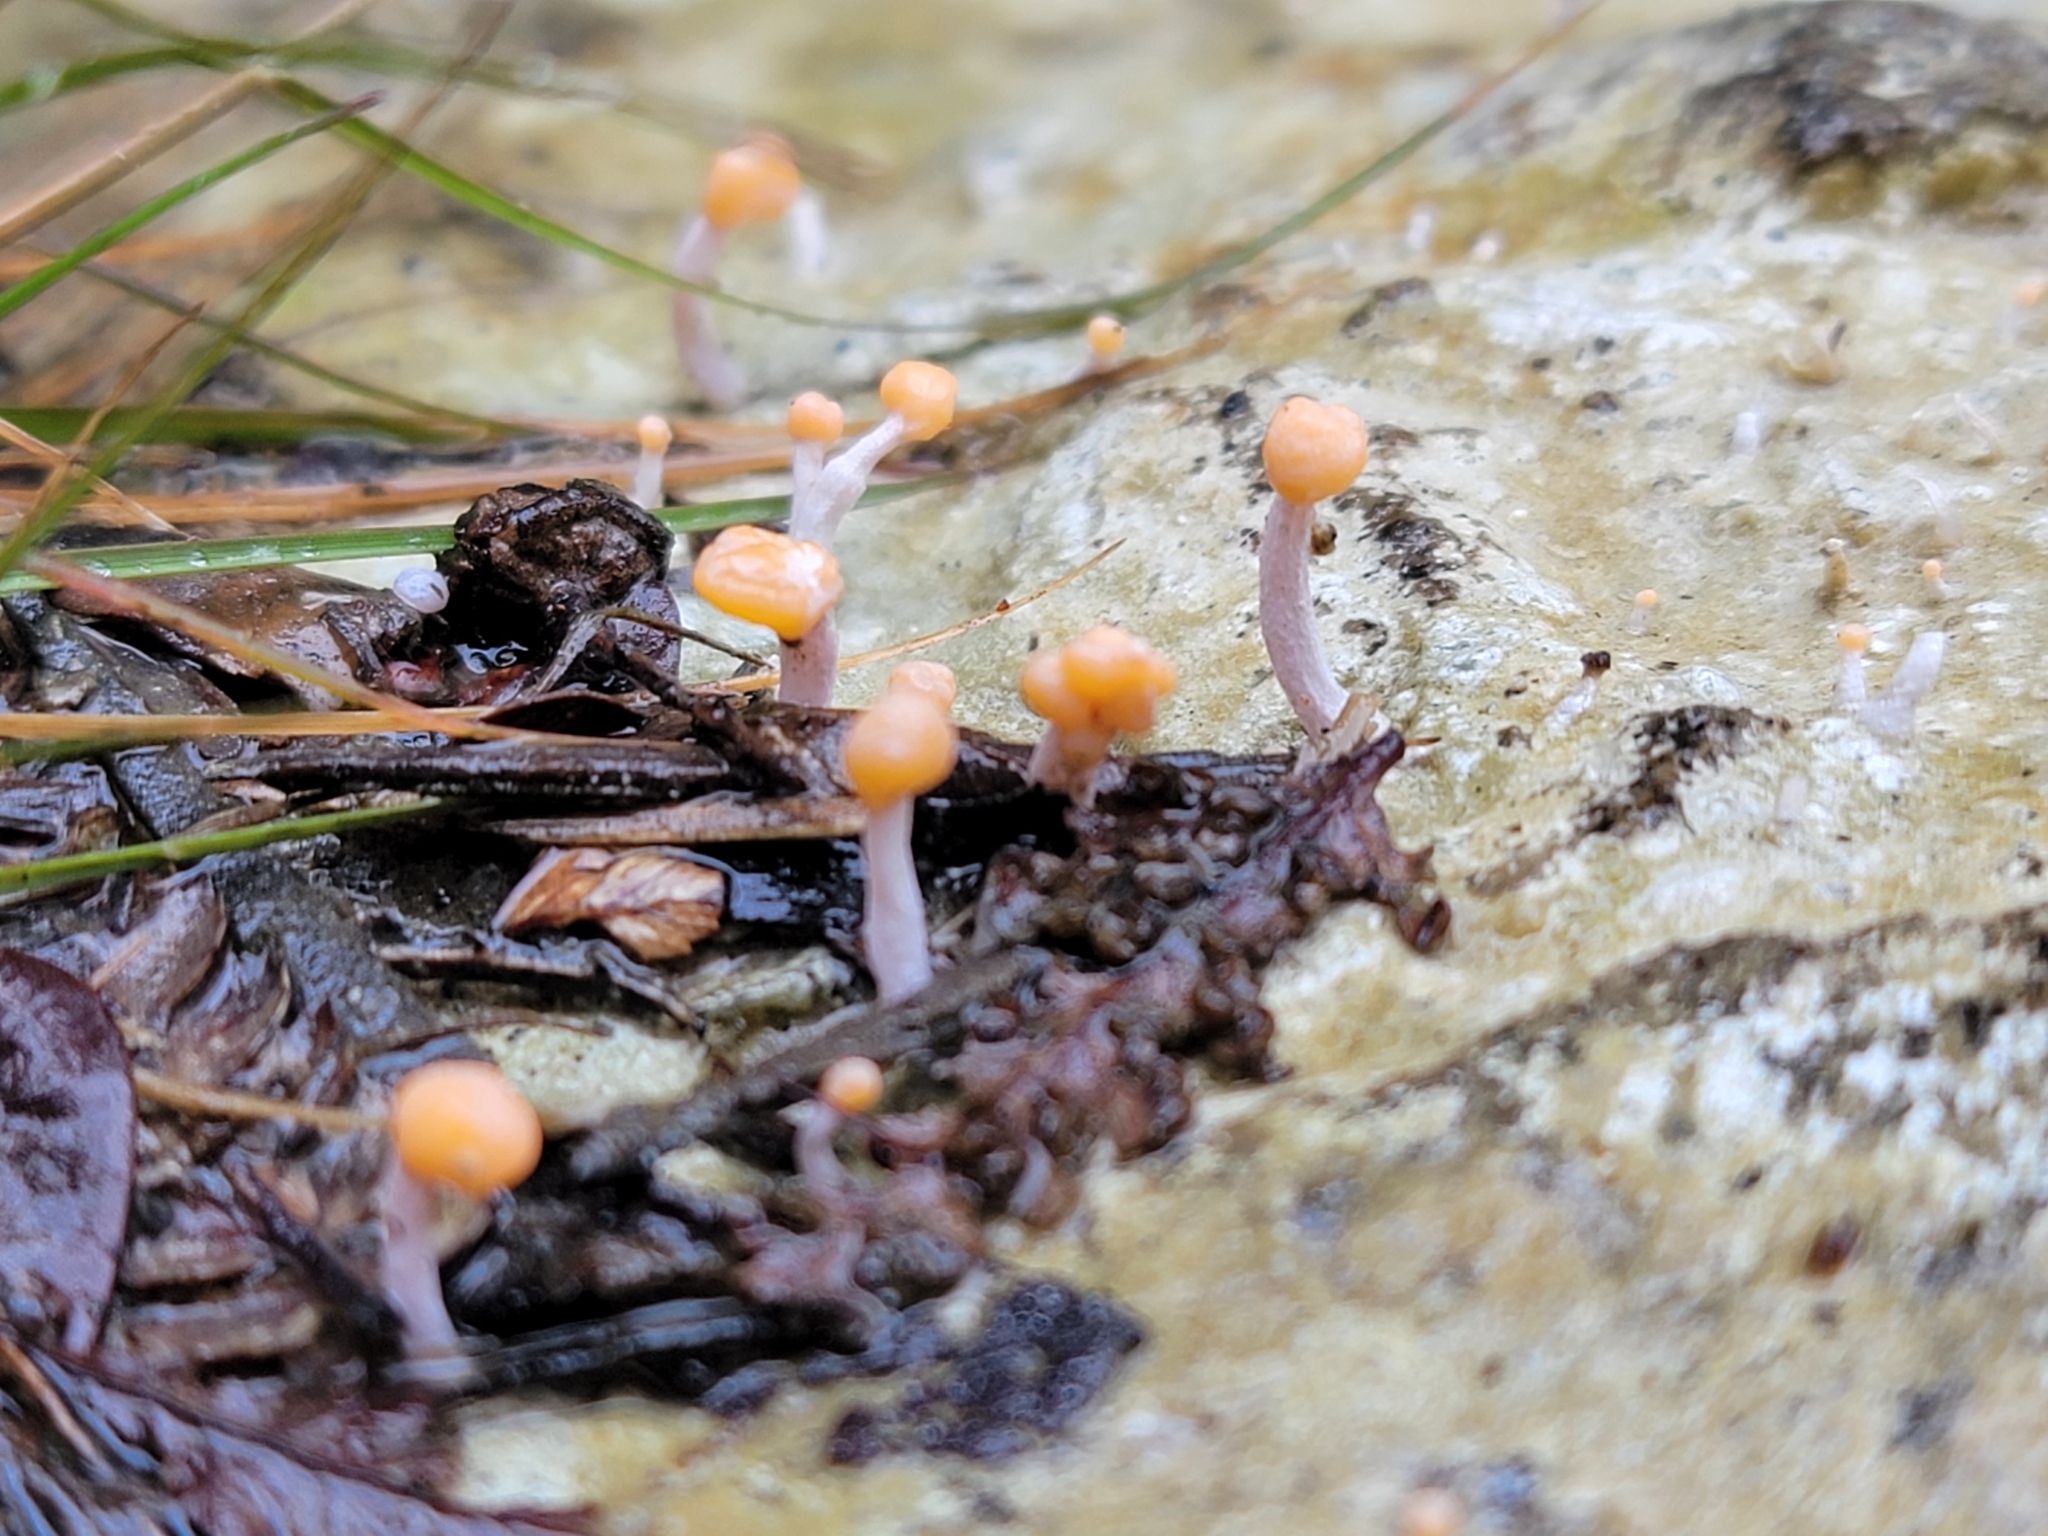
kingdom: Fungi
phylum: Ascomycota
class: Lecanoromycetes
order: Pertusariales
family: Icmadophilaceae
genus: Dibaeis
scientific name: Dibaeis arcuata
